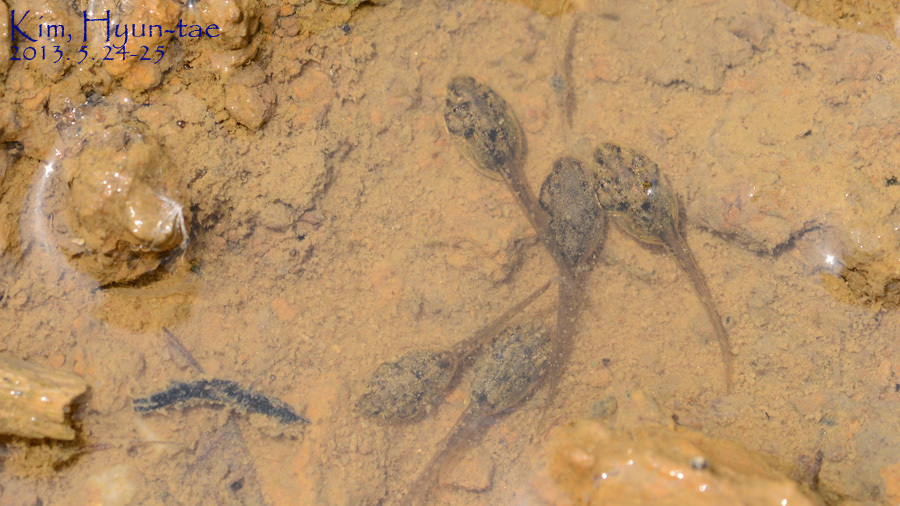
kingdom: Animalia
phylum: Chordata
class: Amphibia
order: Anura
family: Ranidae
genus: Rana
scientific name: Rana coreana
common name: Korean brown frog
